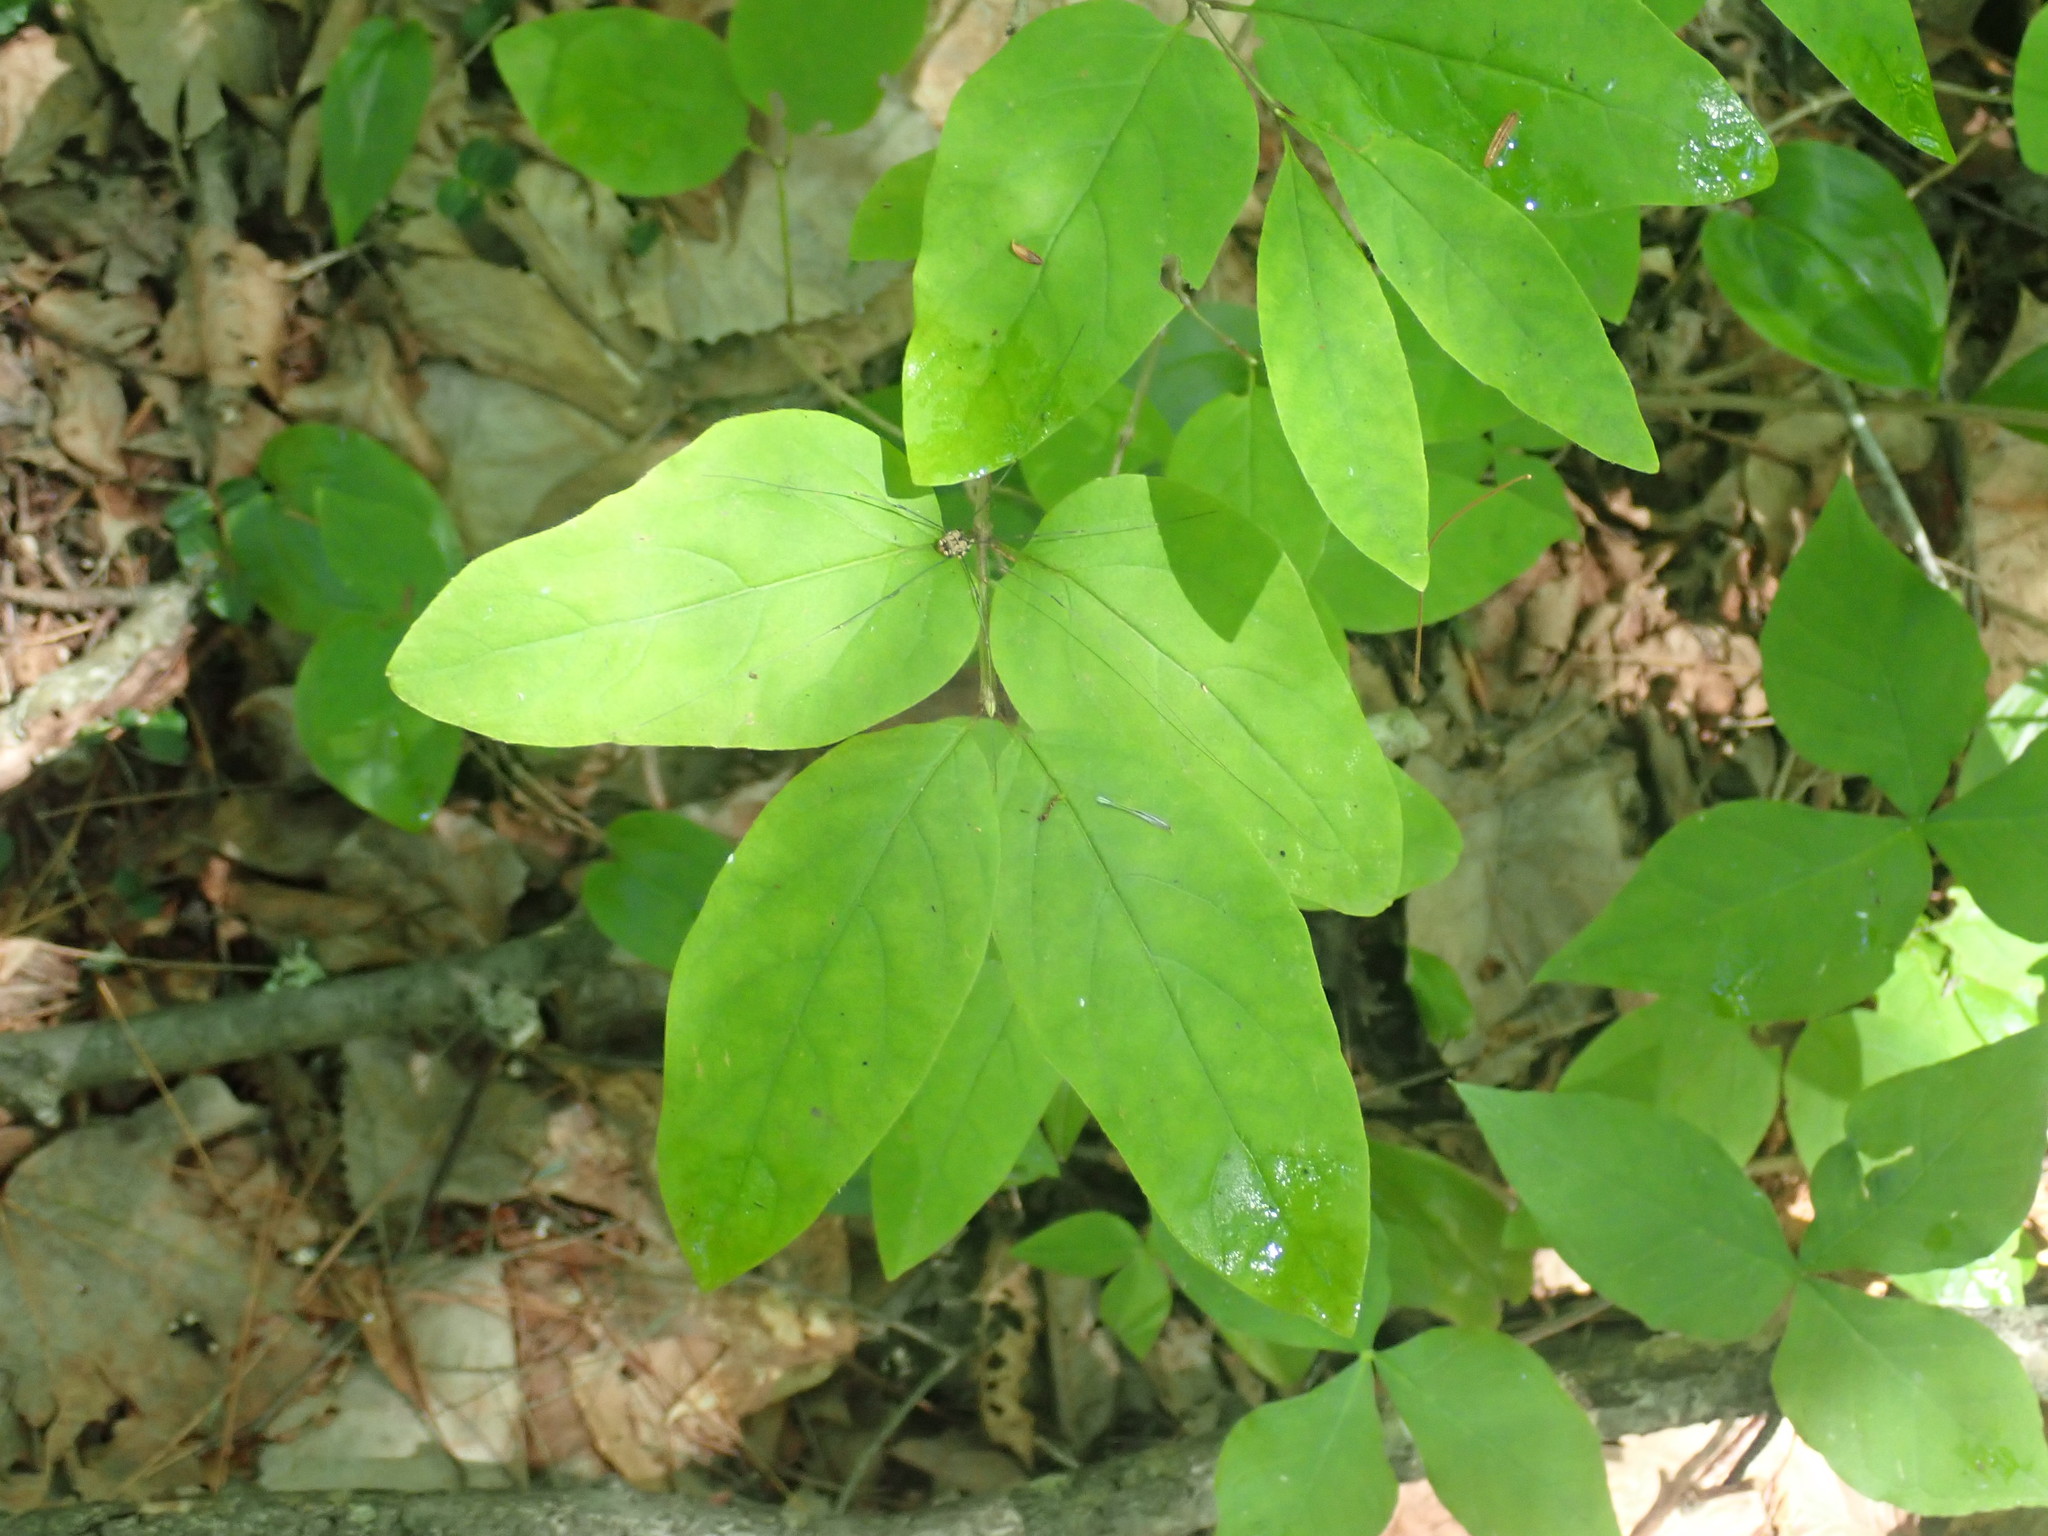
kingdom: Plantae
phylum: Tracheophyta
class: Magnoliopsida
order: Dipsacales
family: Caprifoliaceae
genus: Lonicera
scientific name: Lonicera canadensis
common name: American fly-honeysuckle
